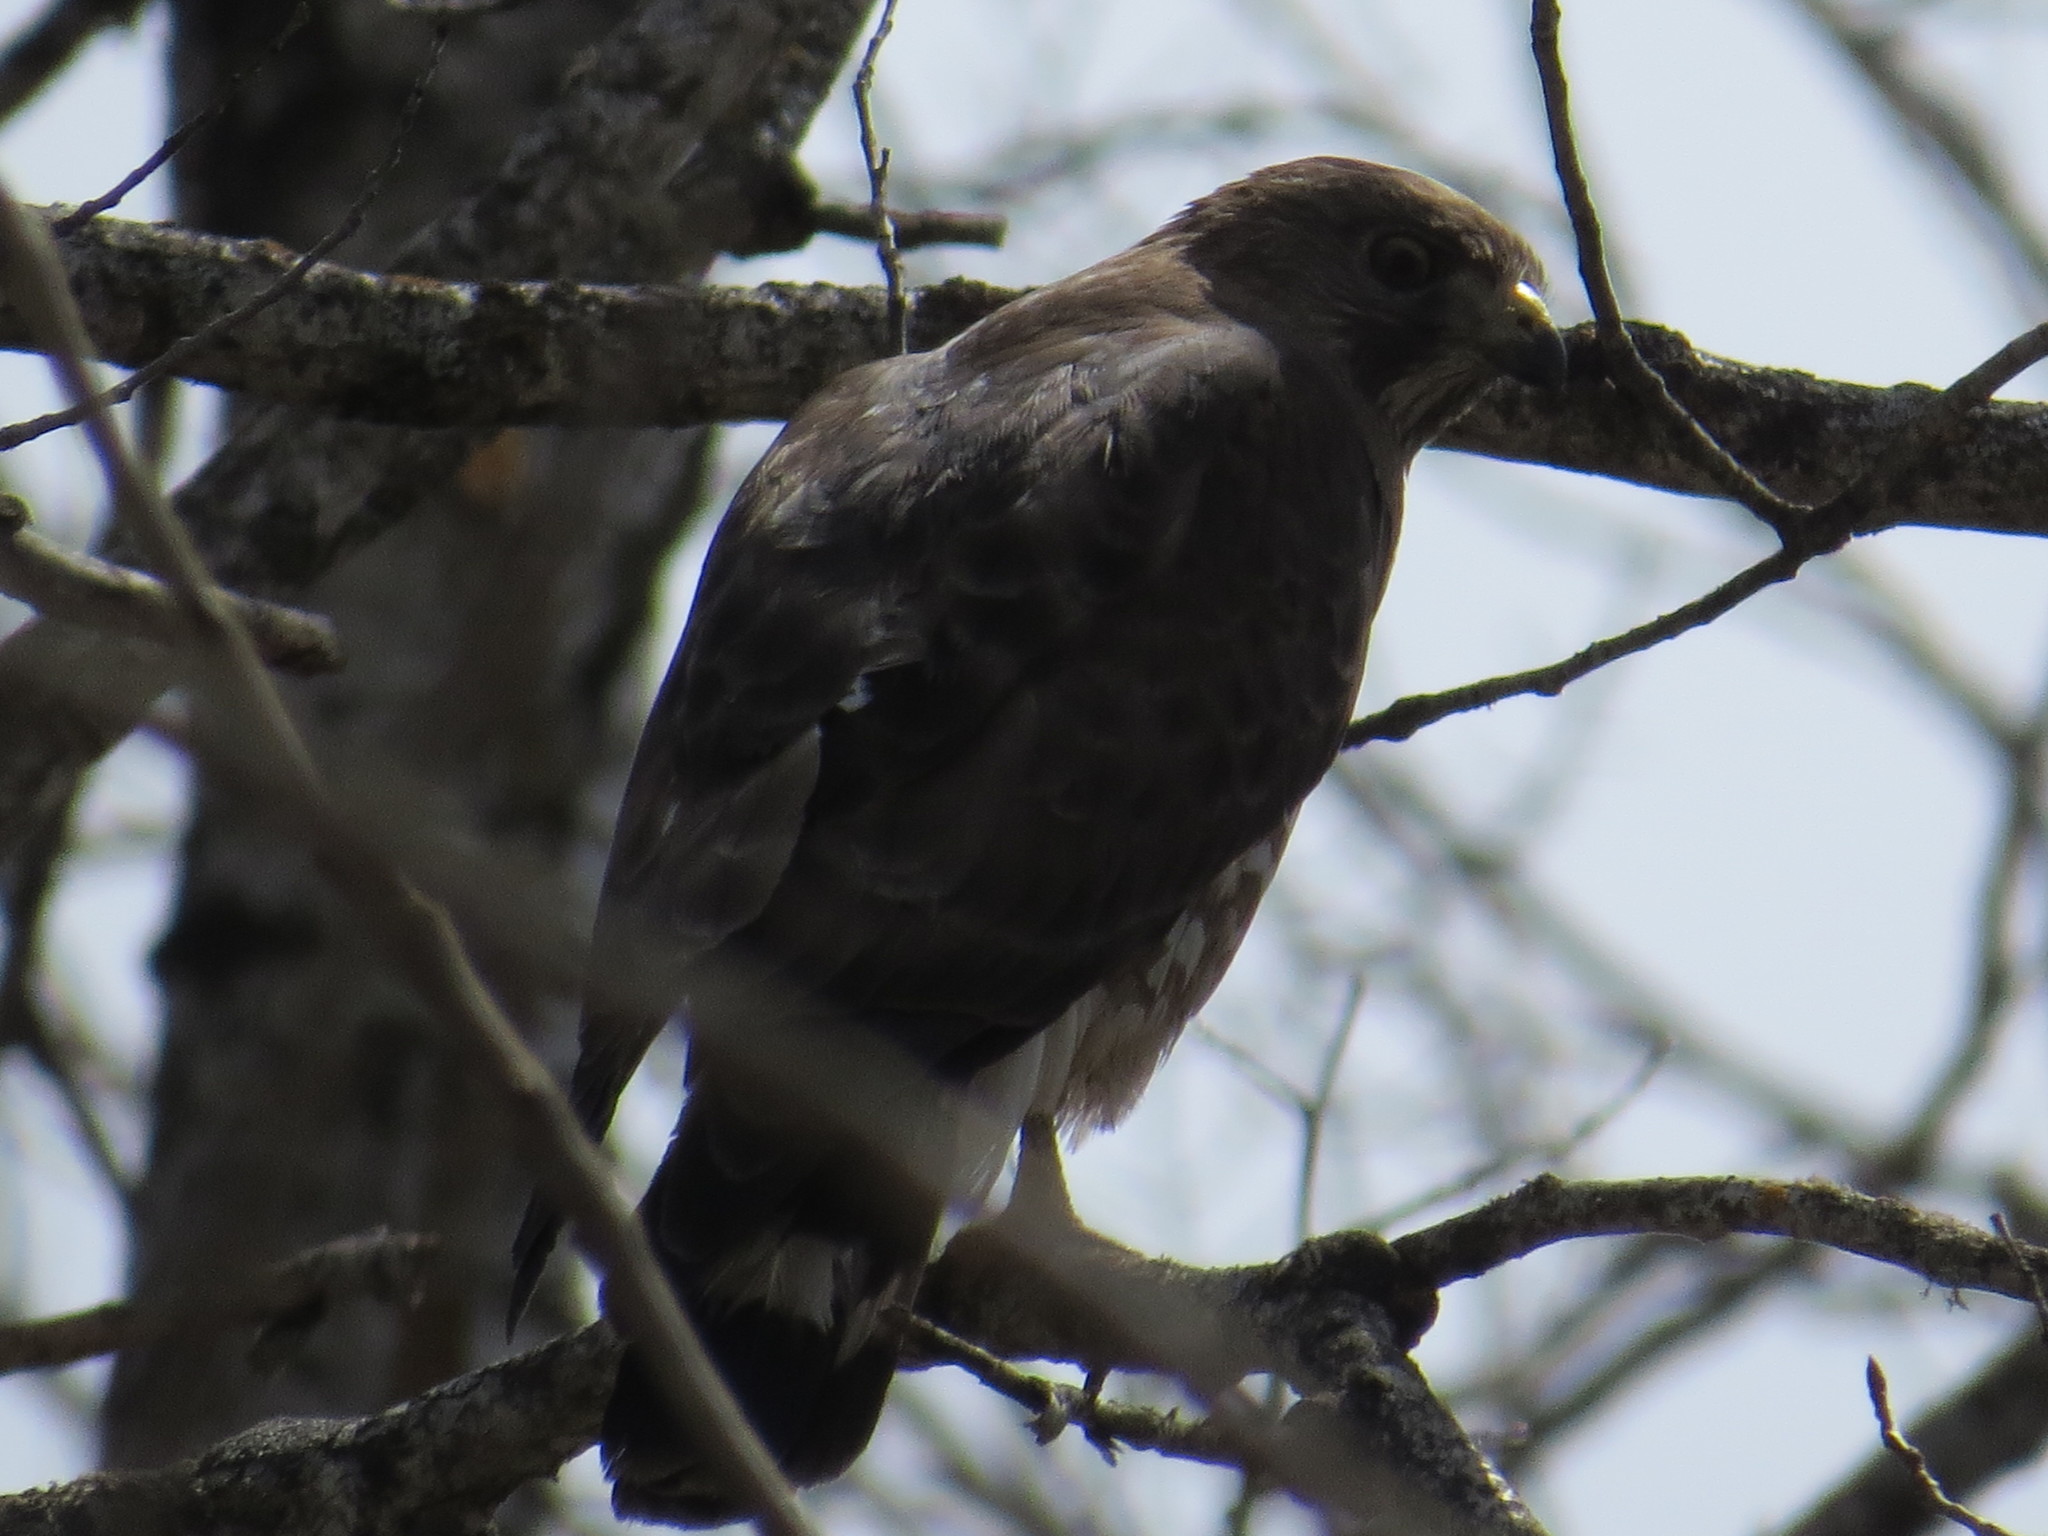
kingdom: Animalia
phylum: Chordata
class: Aves
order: Accipitriformes
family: Accipitridae
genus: Buteo
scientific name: Buteo platypterus
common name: Broad-winged hawk
